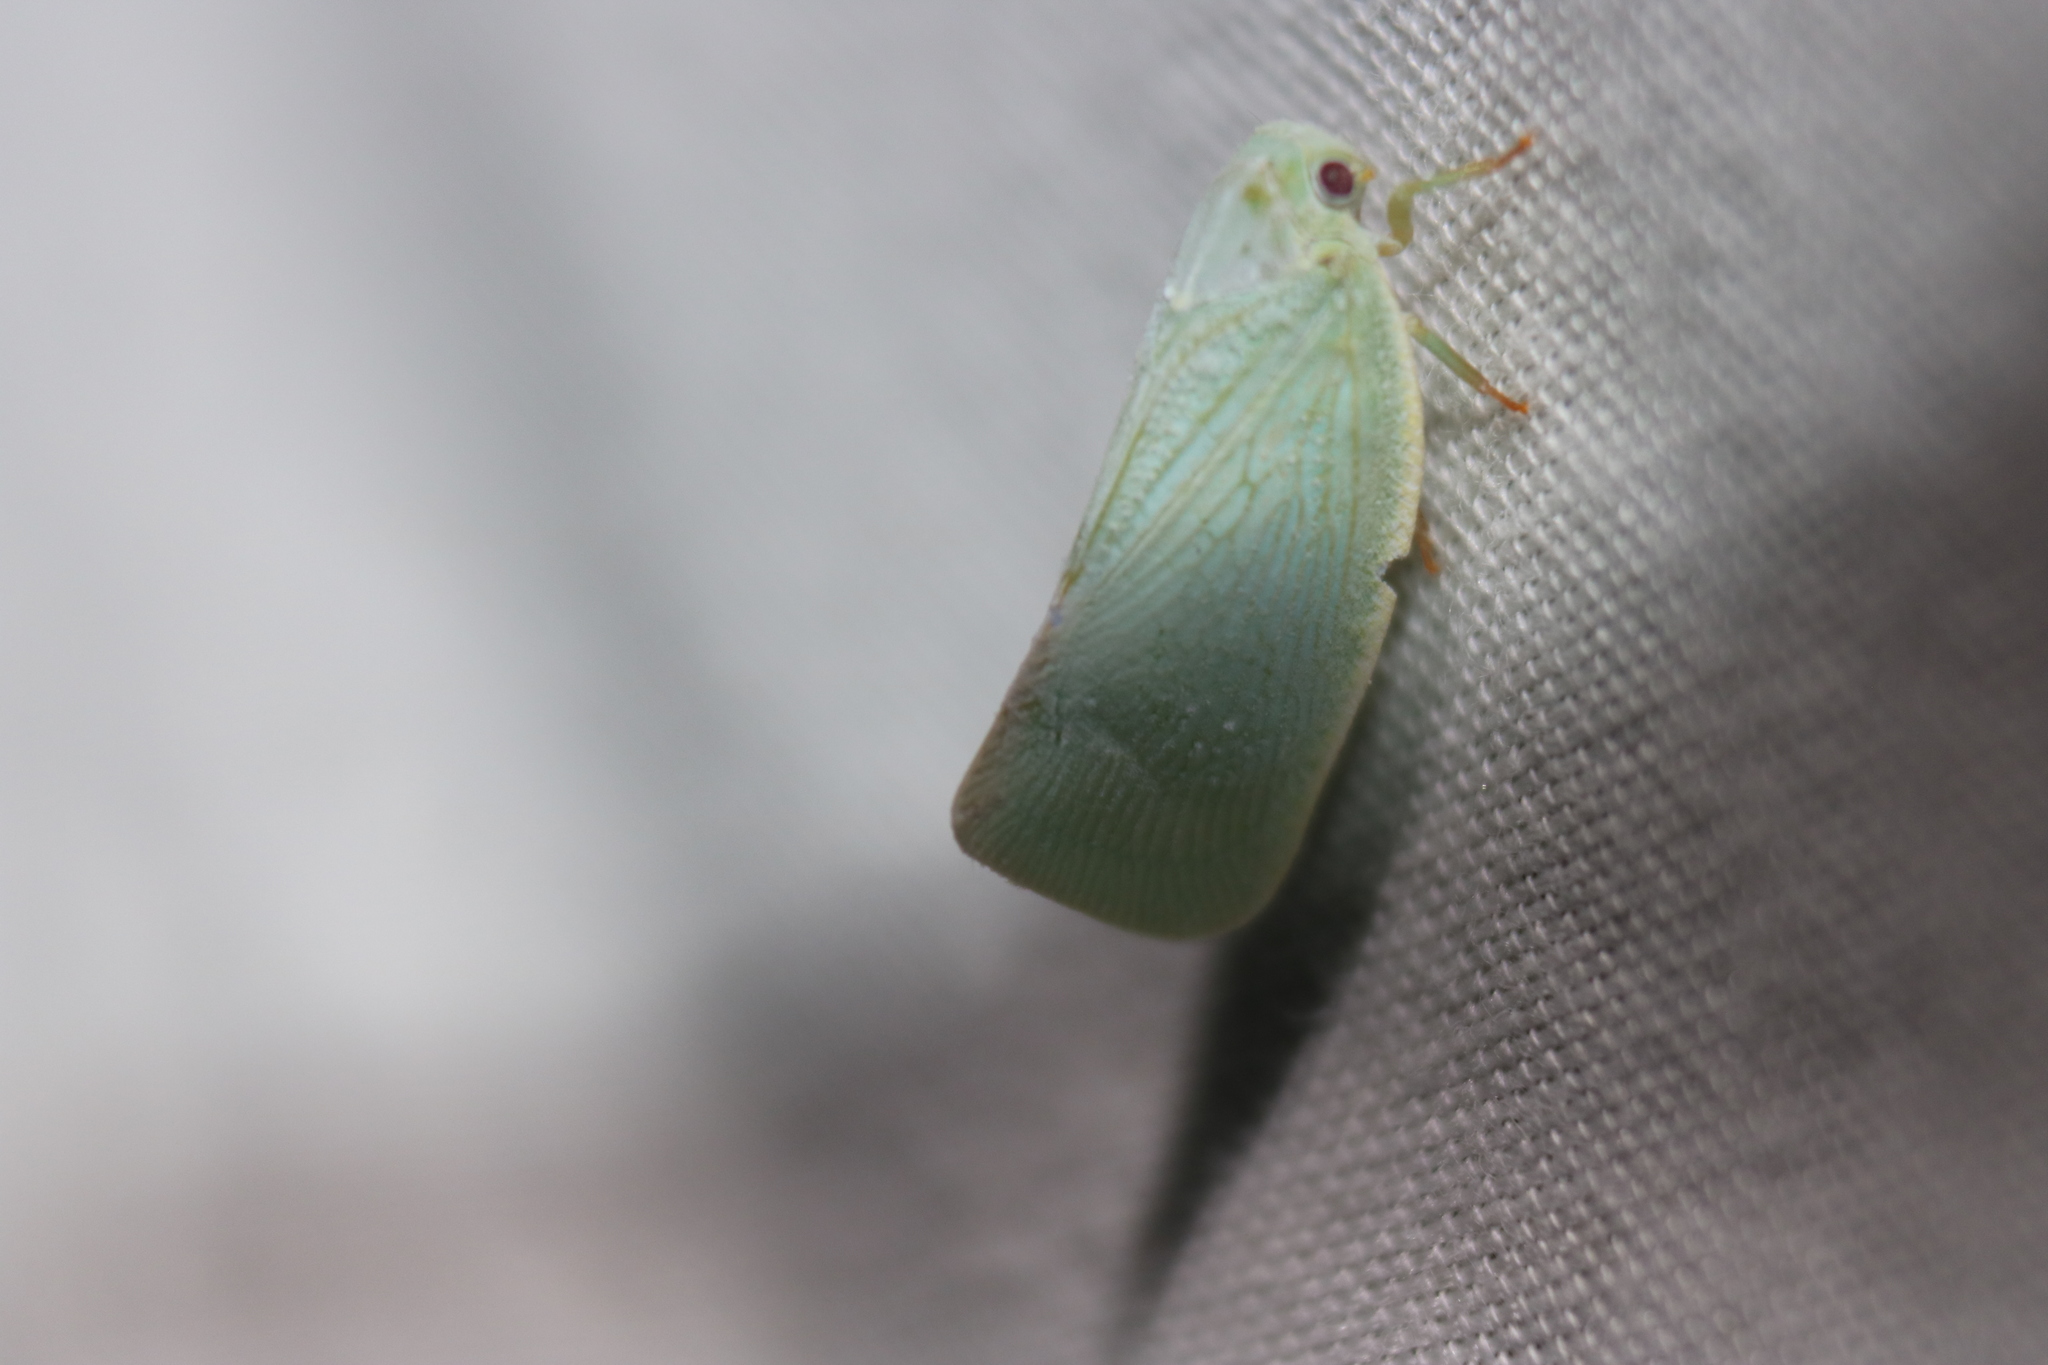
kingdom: Animalia
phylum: Arthropoda
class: Insecta
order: Hemiptera
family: Flatidae
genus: Flatormenis
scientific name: Flatormenis proxima
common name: Northern flatid planthopper
